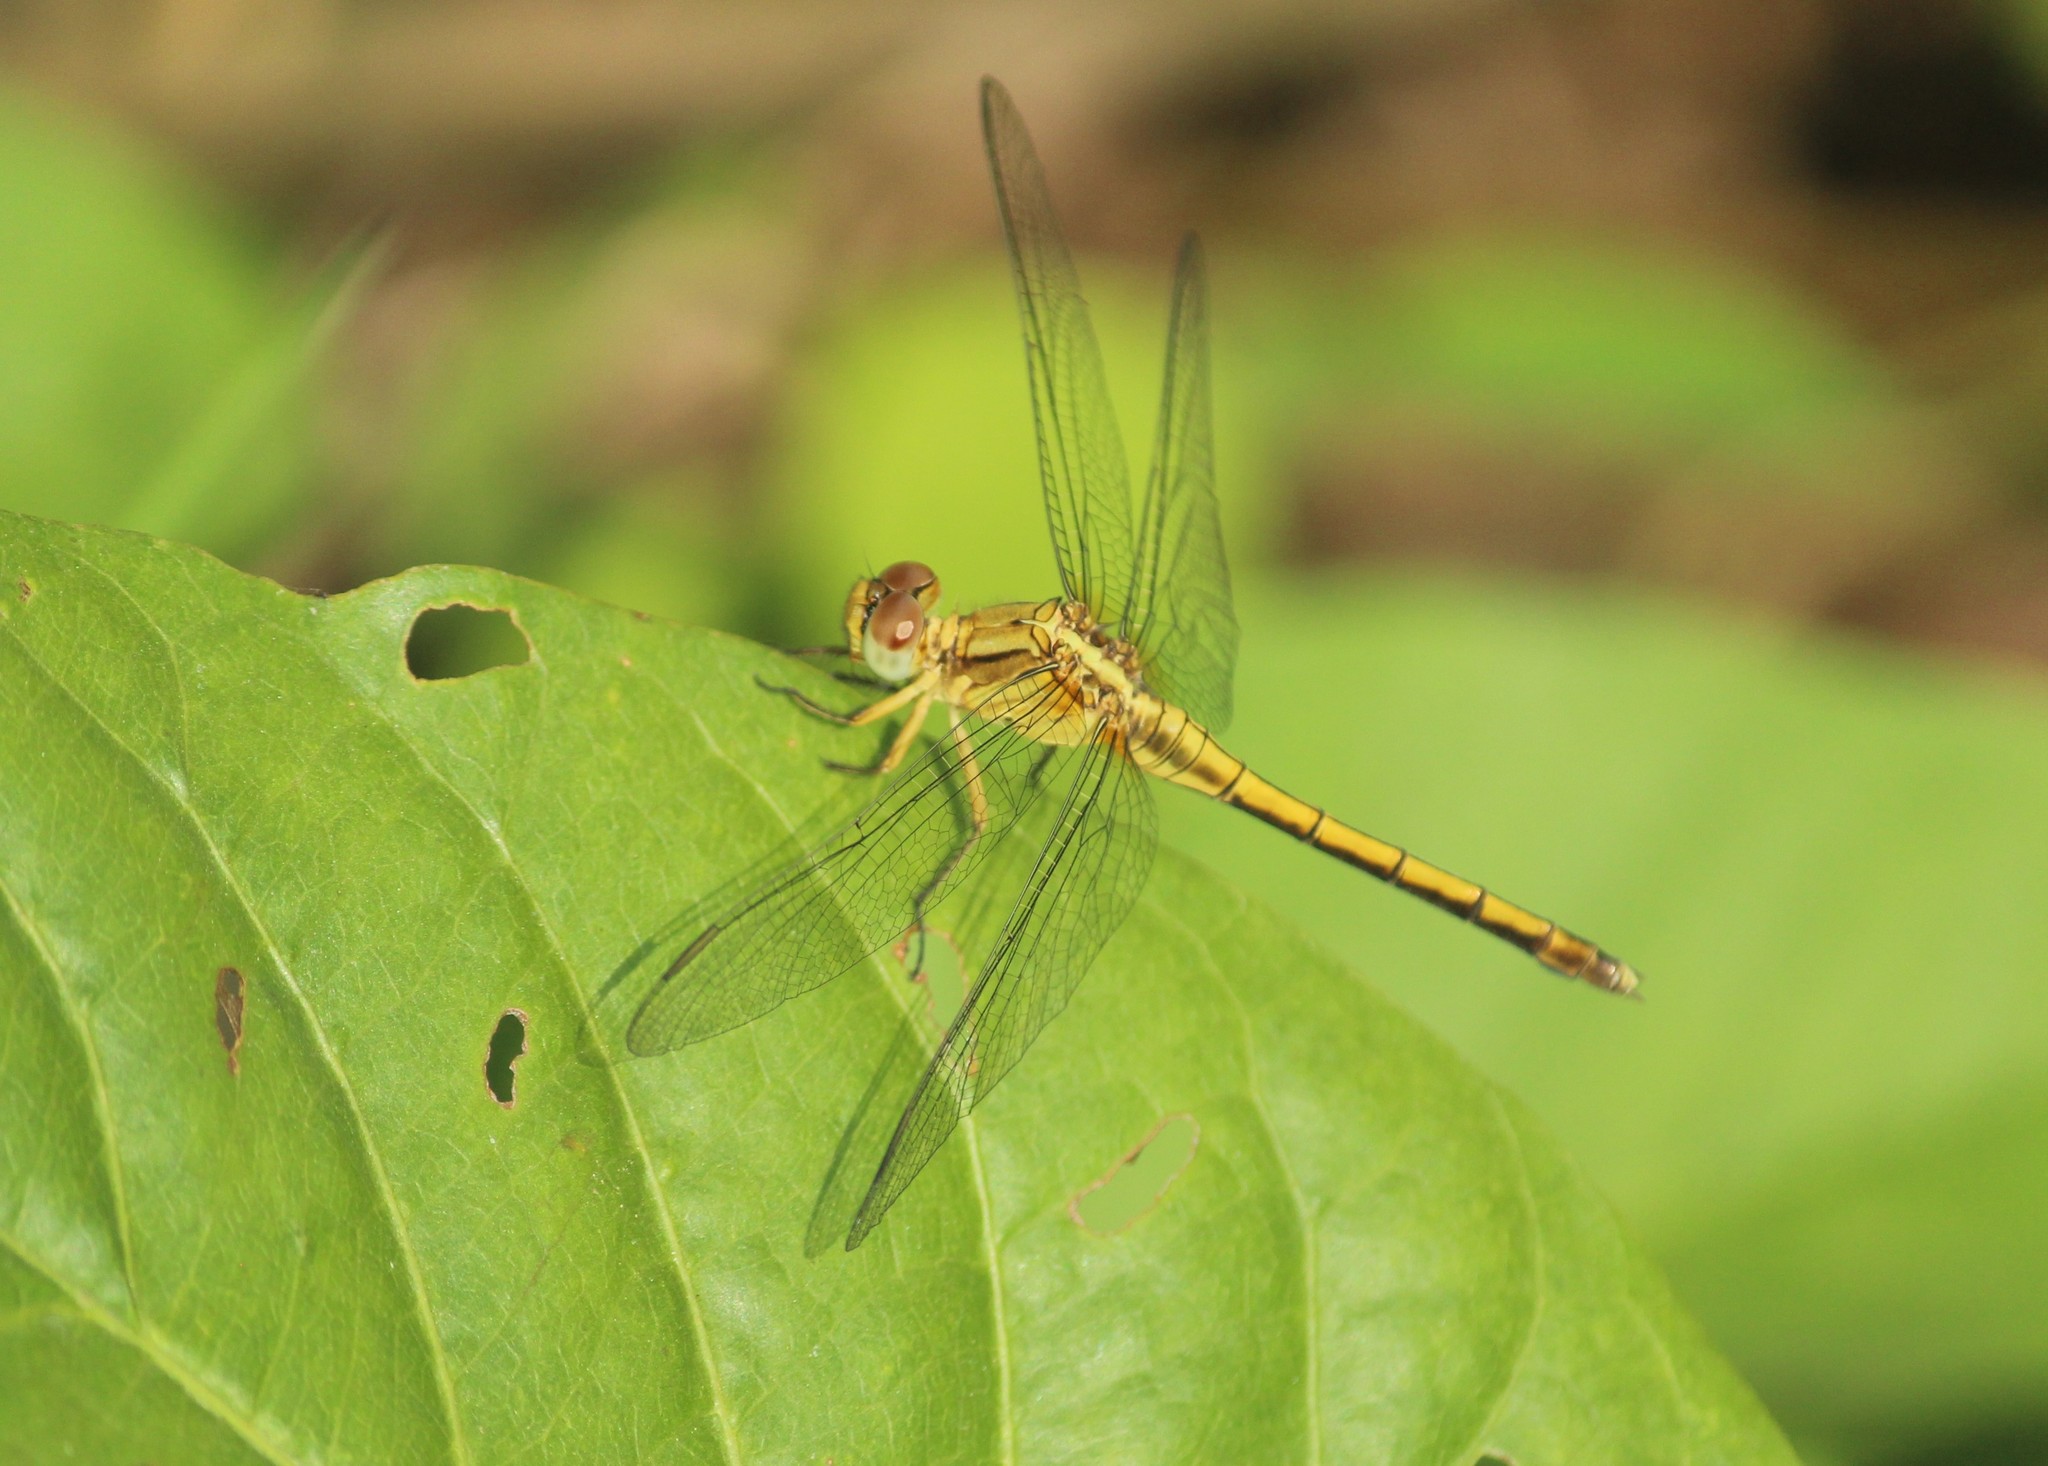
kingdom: Animalia
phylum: Arthropoda
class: Insecta
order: Odonata
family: Libellulidae
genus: Orthetrum
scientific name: Orthetrum luzonicum
